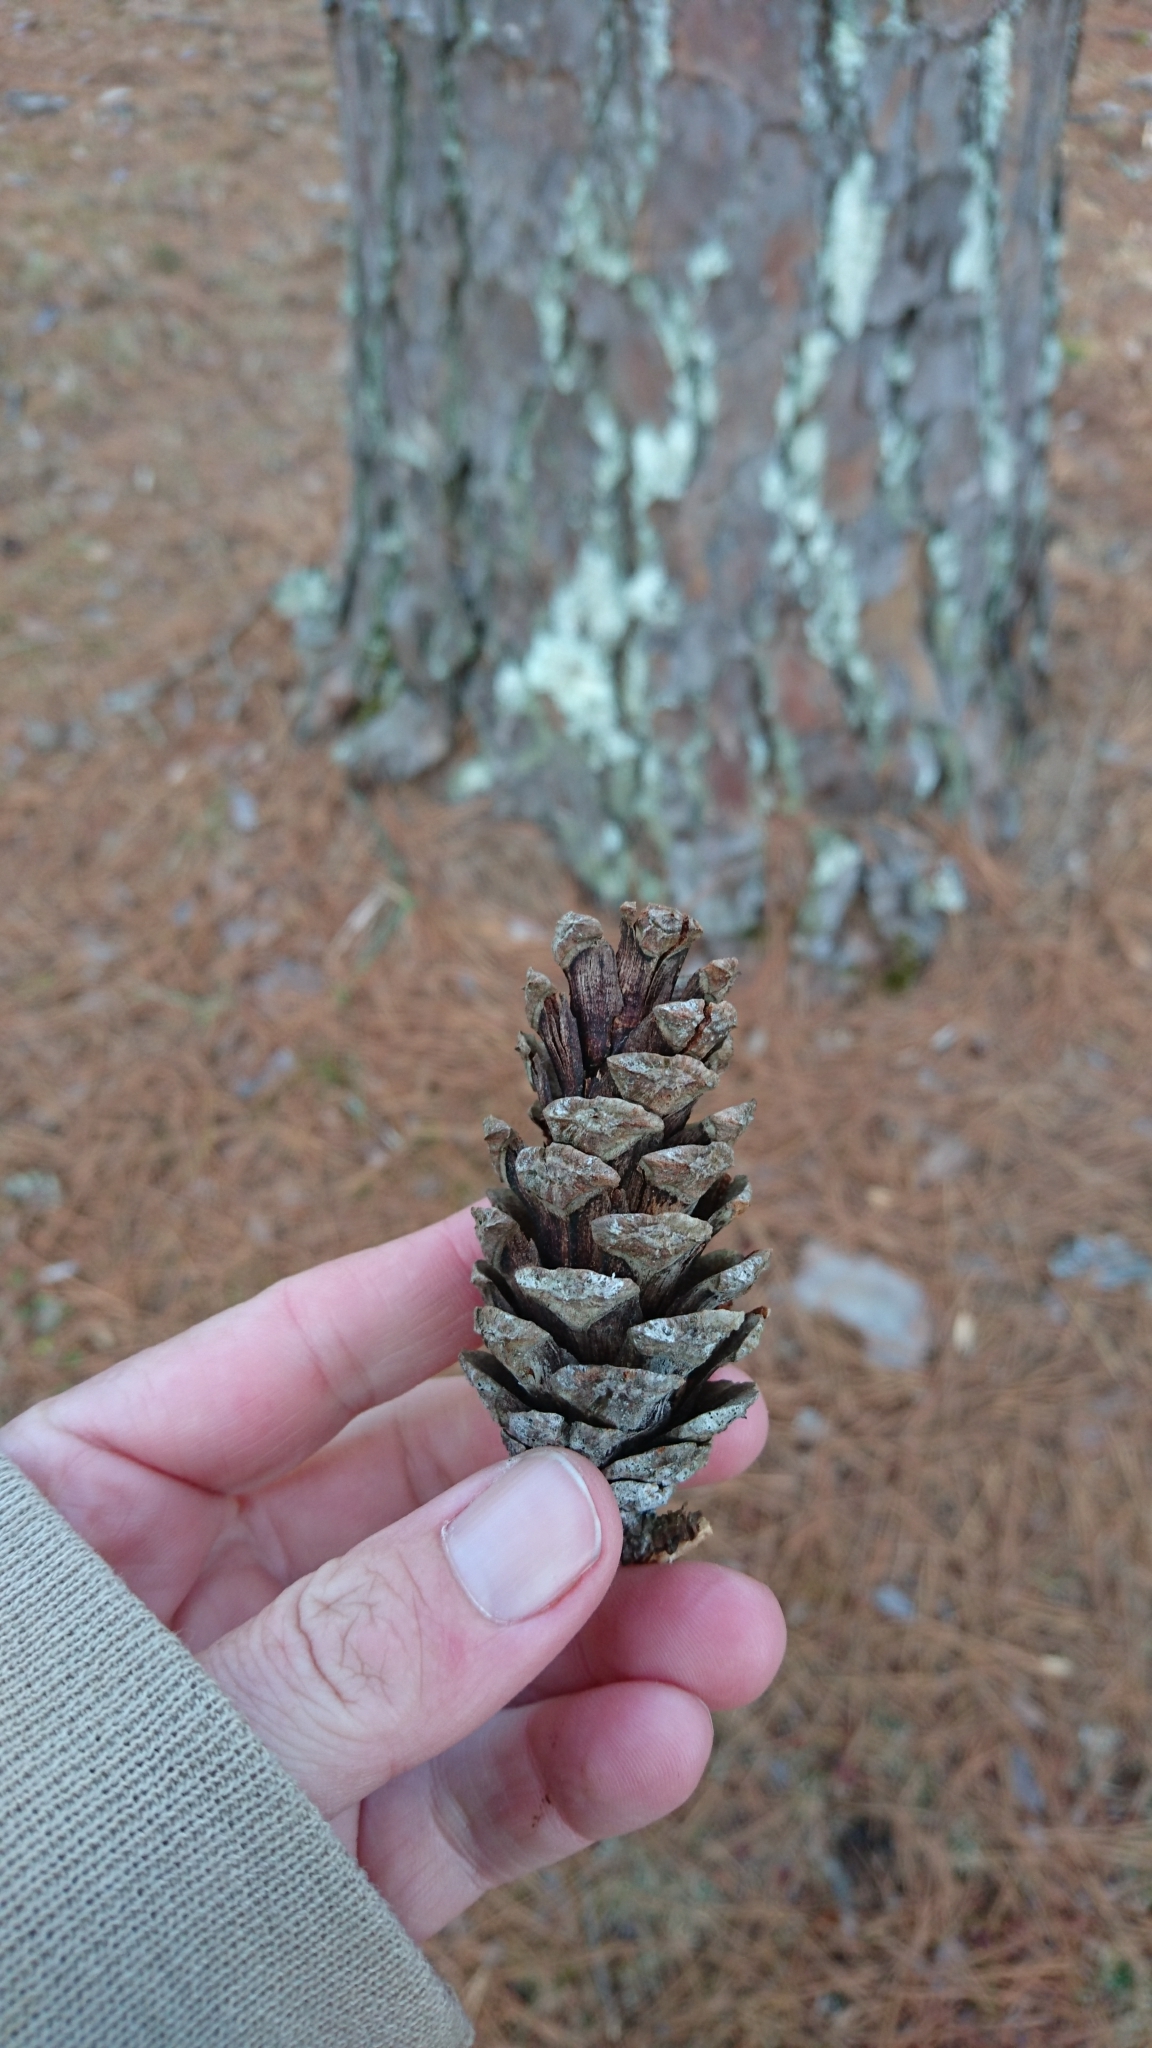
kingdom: Plantae
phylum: Tracheophyta
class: Pinopsida
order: Pinales
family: Pinaceae
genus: Pinus
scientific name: Pinus echinata
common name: Shortleaf pine
